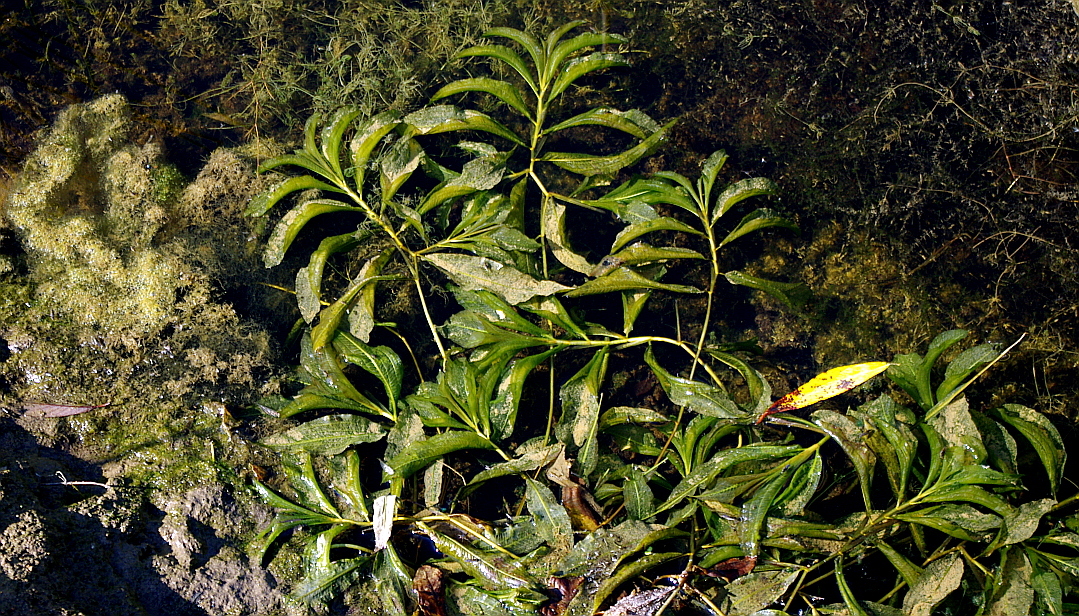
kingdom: Plantae
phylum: Tracheophyta
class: Liliopsida
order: Alismatales
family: Potamogetonaceae
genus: Potamogeton
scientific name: Potamogeton lucens
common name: Shining pondweed
